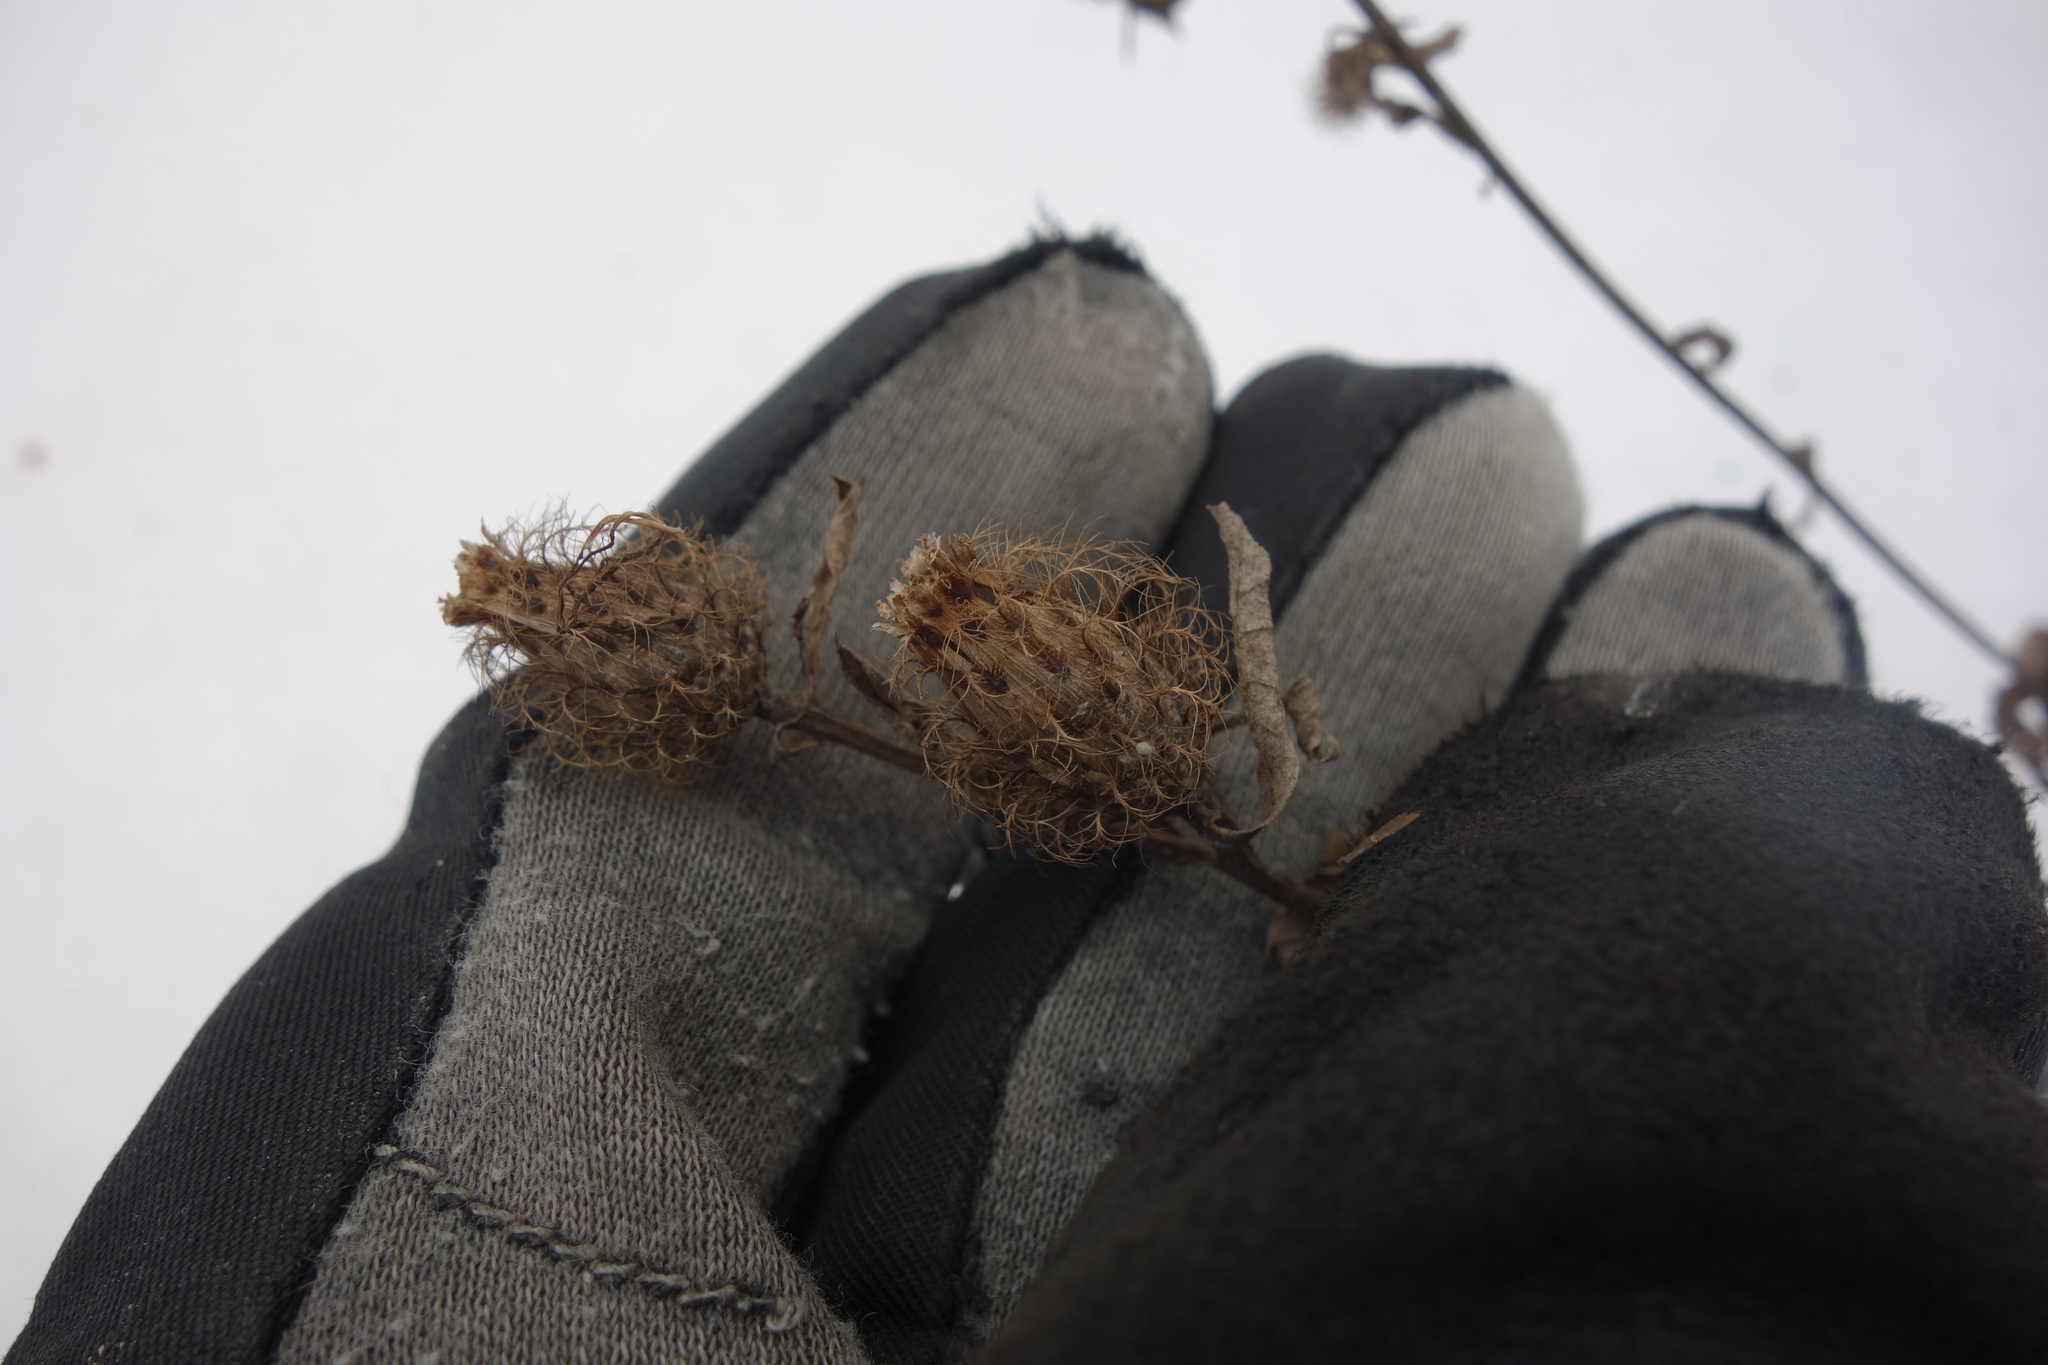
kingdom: Plantae
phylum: Tracheophyta
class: Magnoliopsida
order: Asterales
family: Asteraceae
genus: Centaurea
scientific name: Centaurea pseudophrygia
